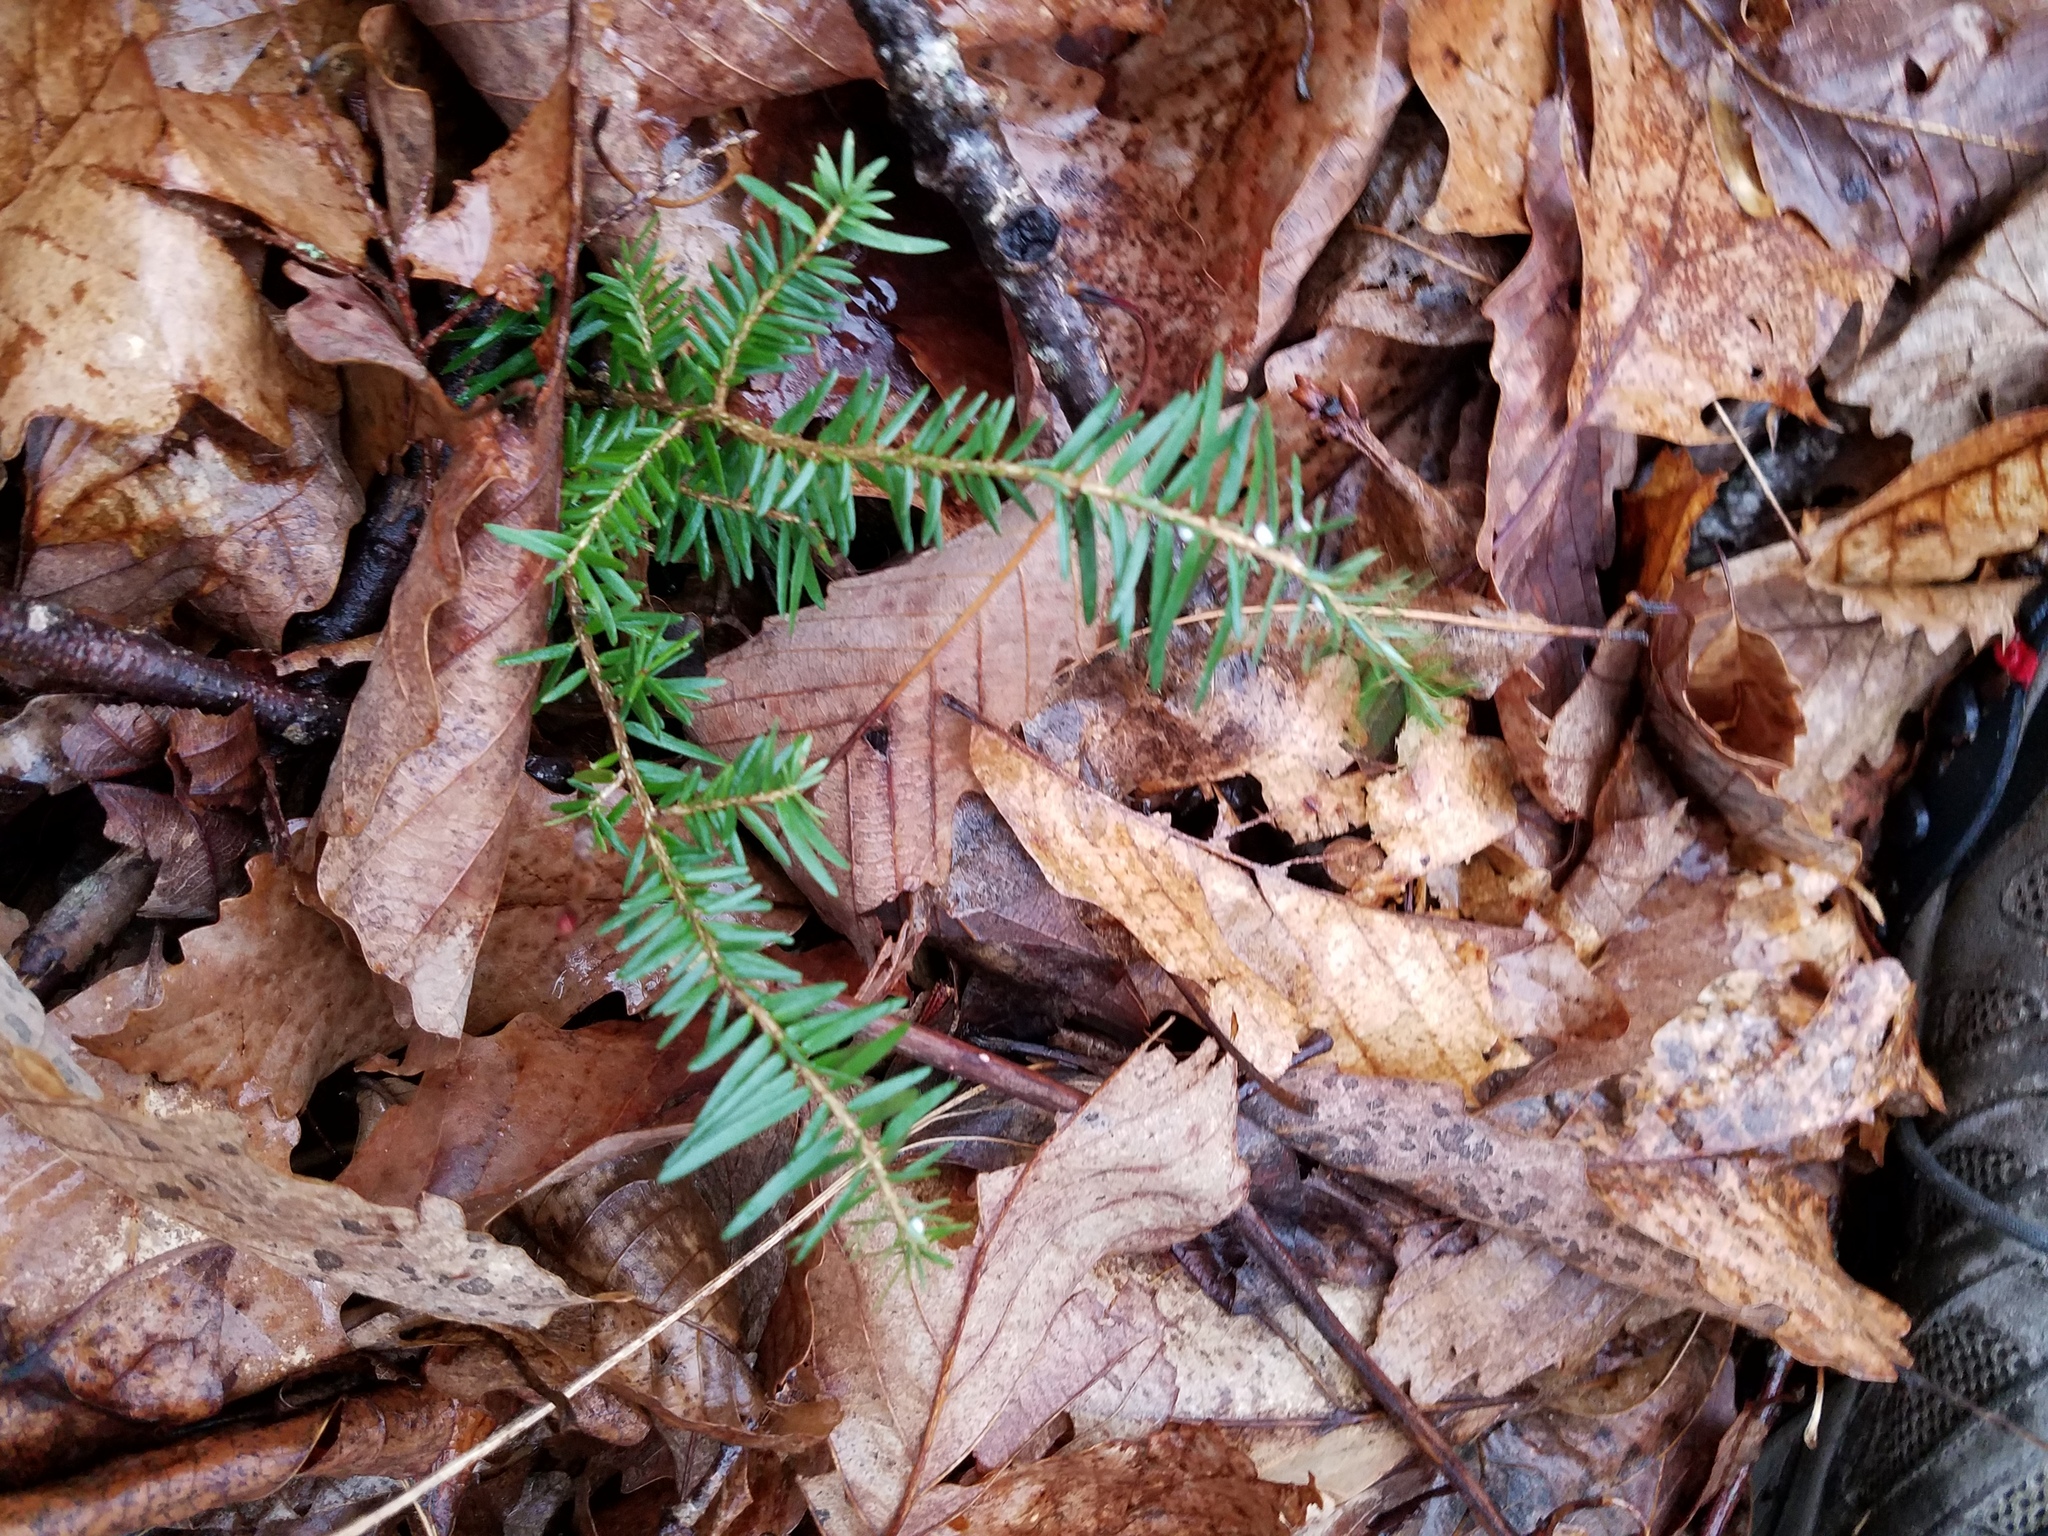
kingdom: Plantae
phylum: Tracheophyta
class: Pinopsida
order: Pinales
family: Pinaceae
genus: Tsuga
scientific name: Tsuga canadensis
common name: Eastern hemlock
